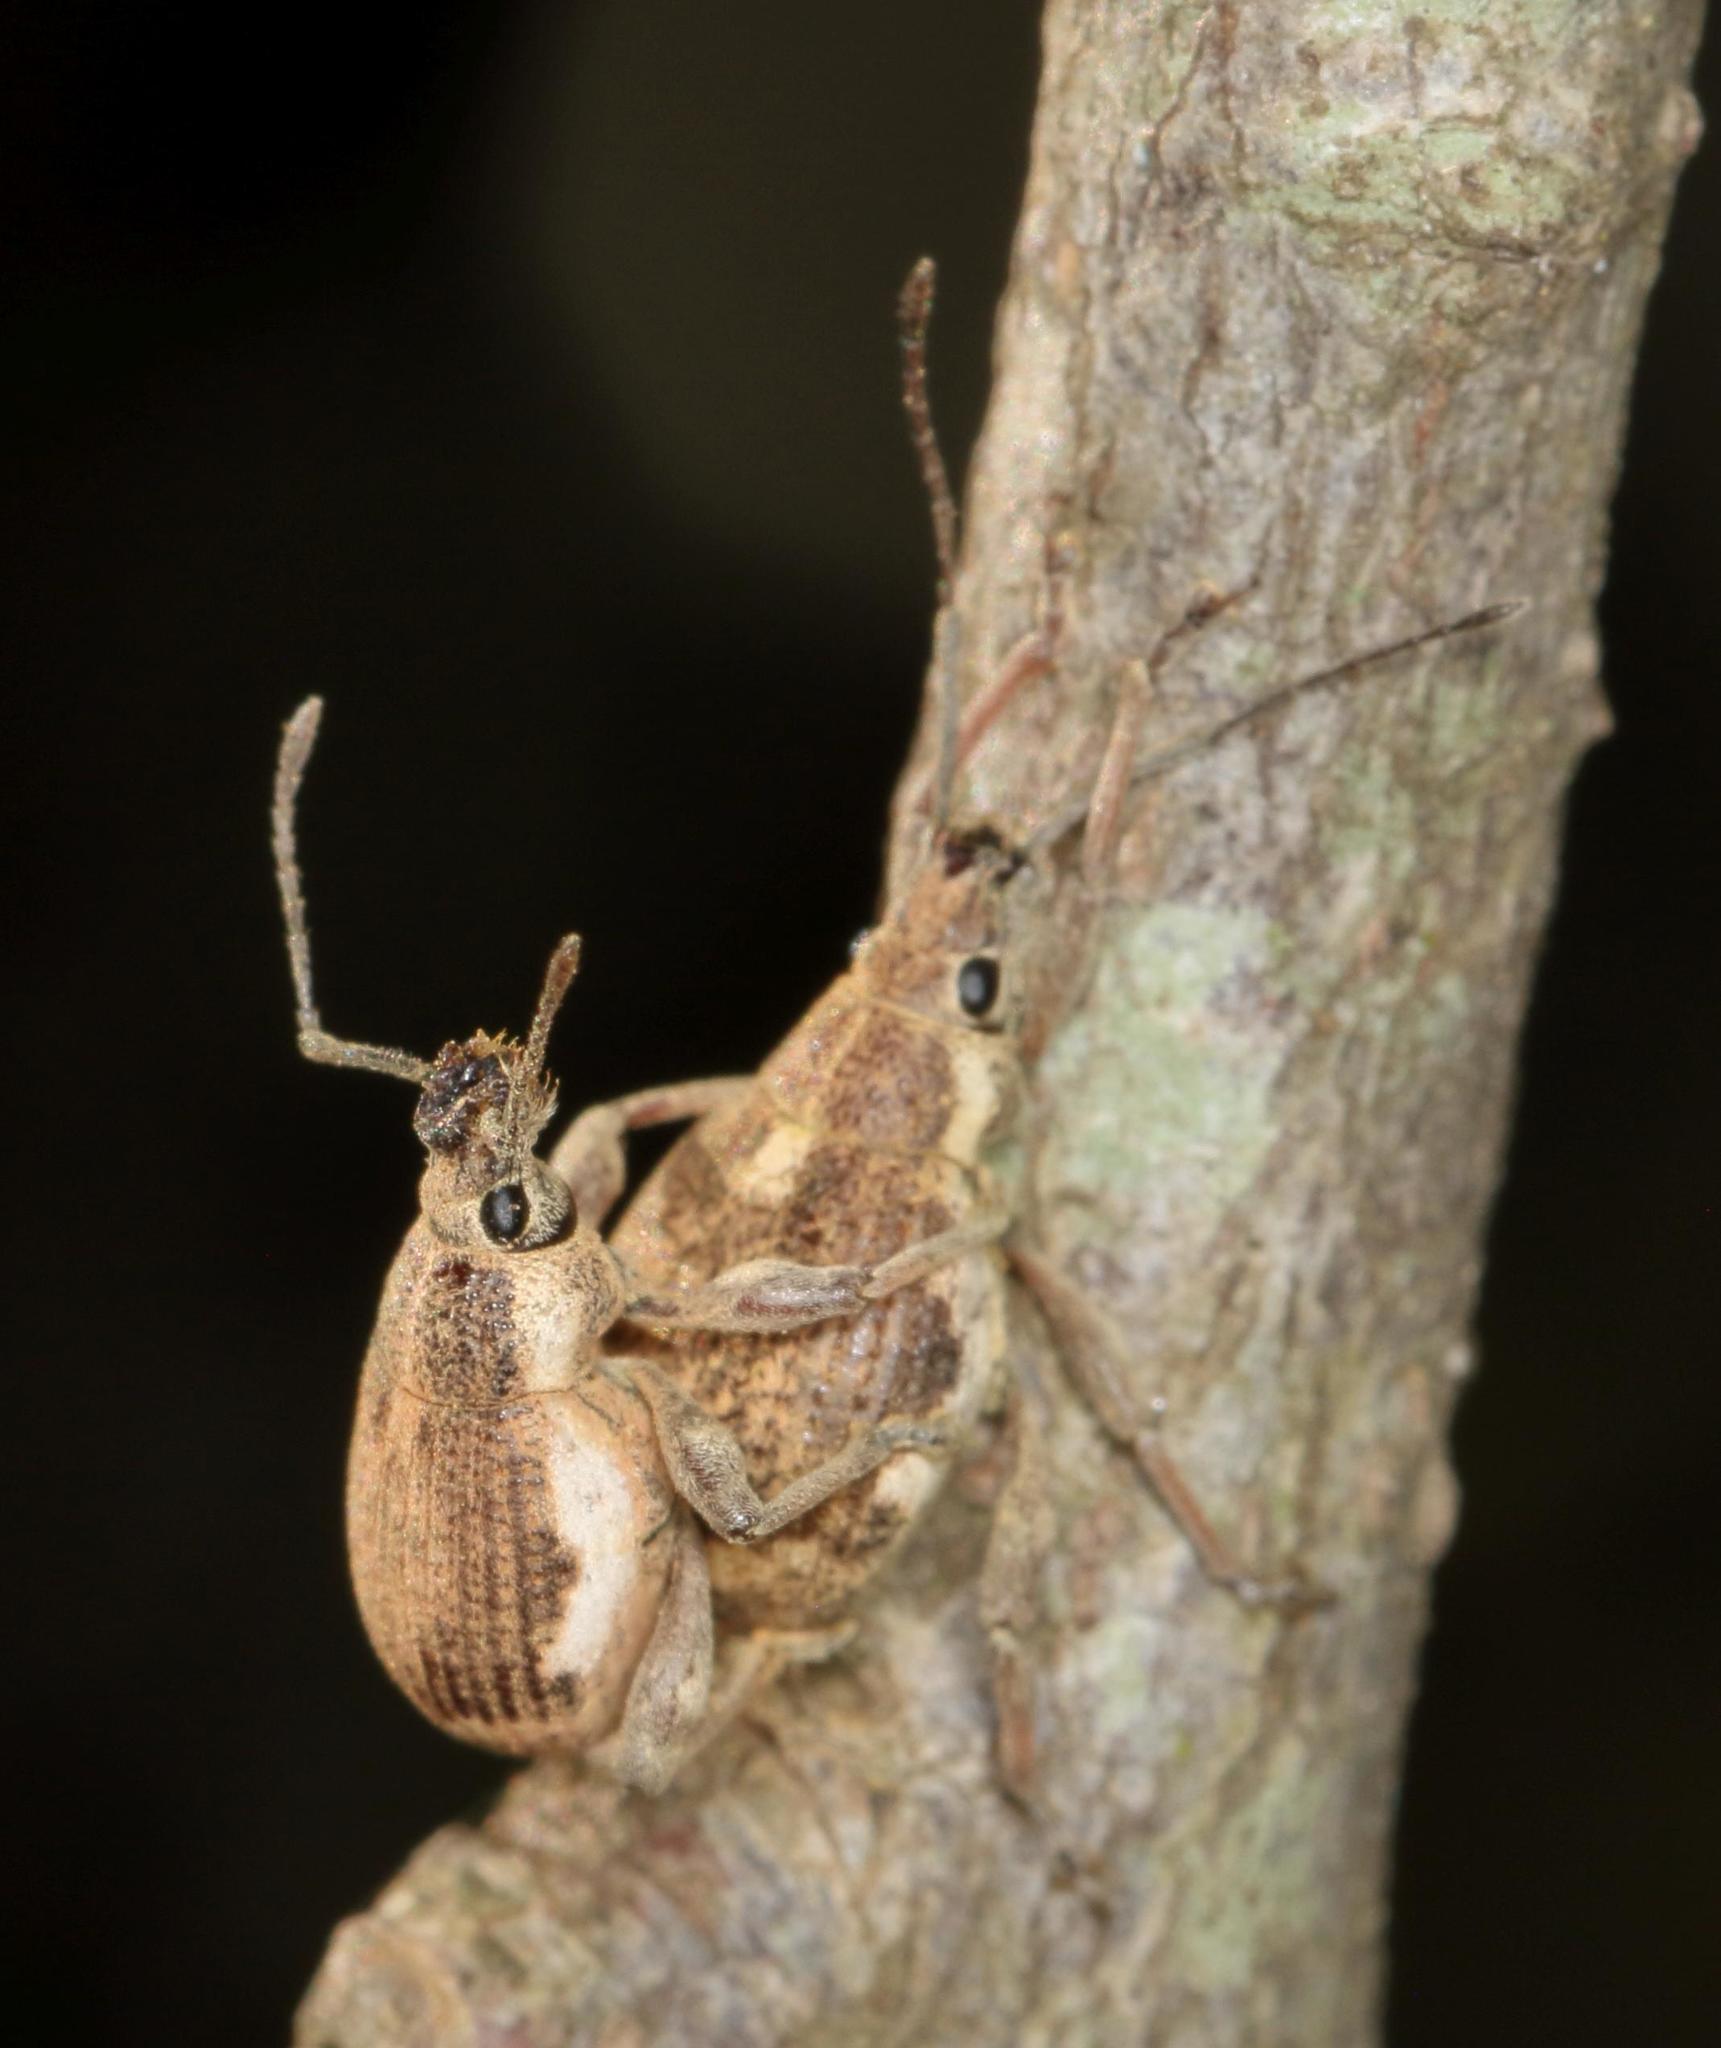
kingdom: Animalia
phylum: Arthropoda
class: Insecta
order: Coleoptera
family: Curculionidae
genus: Sciobius
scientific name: Sciobius pullus
